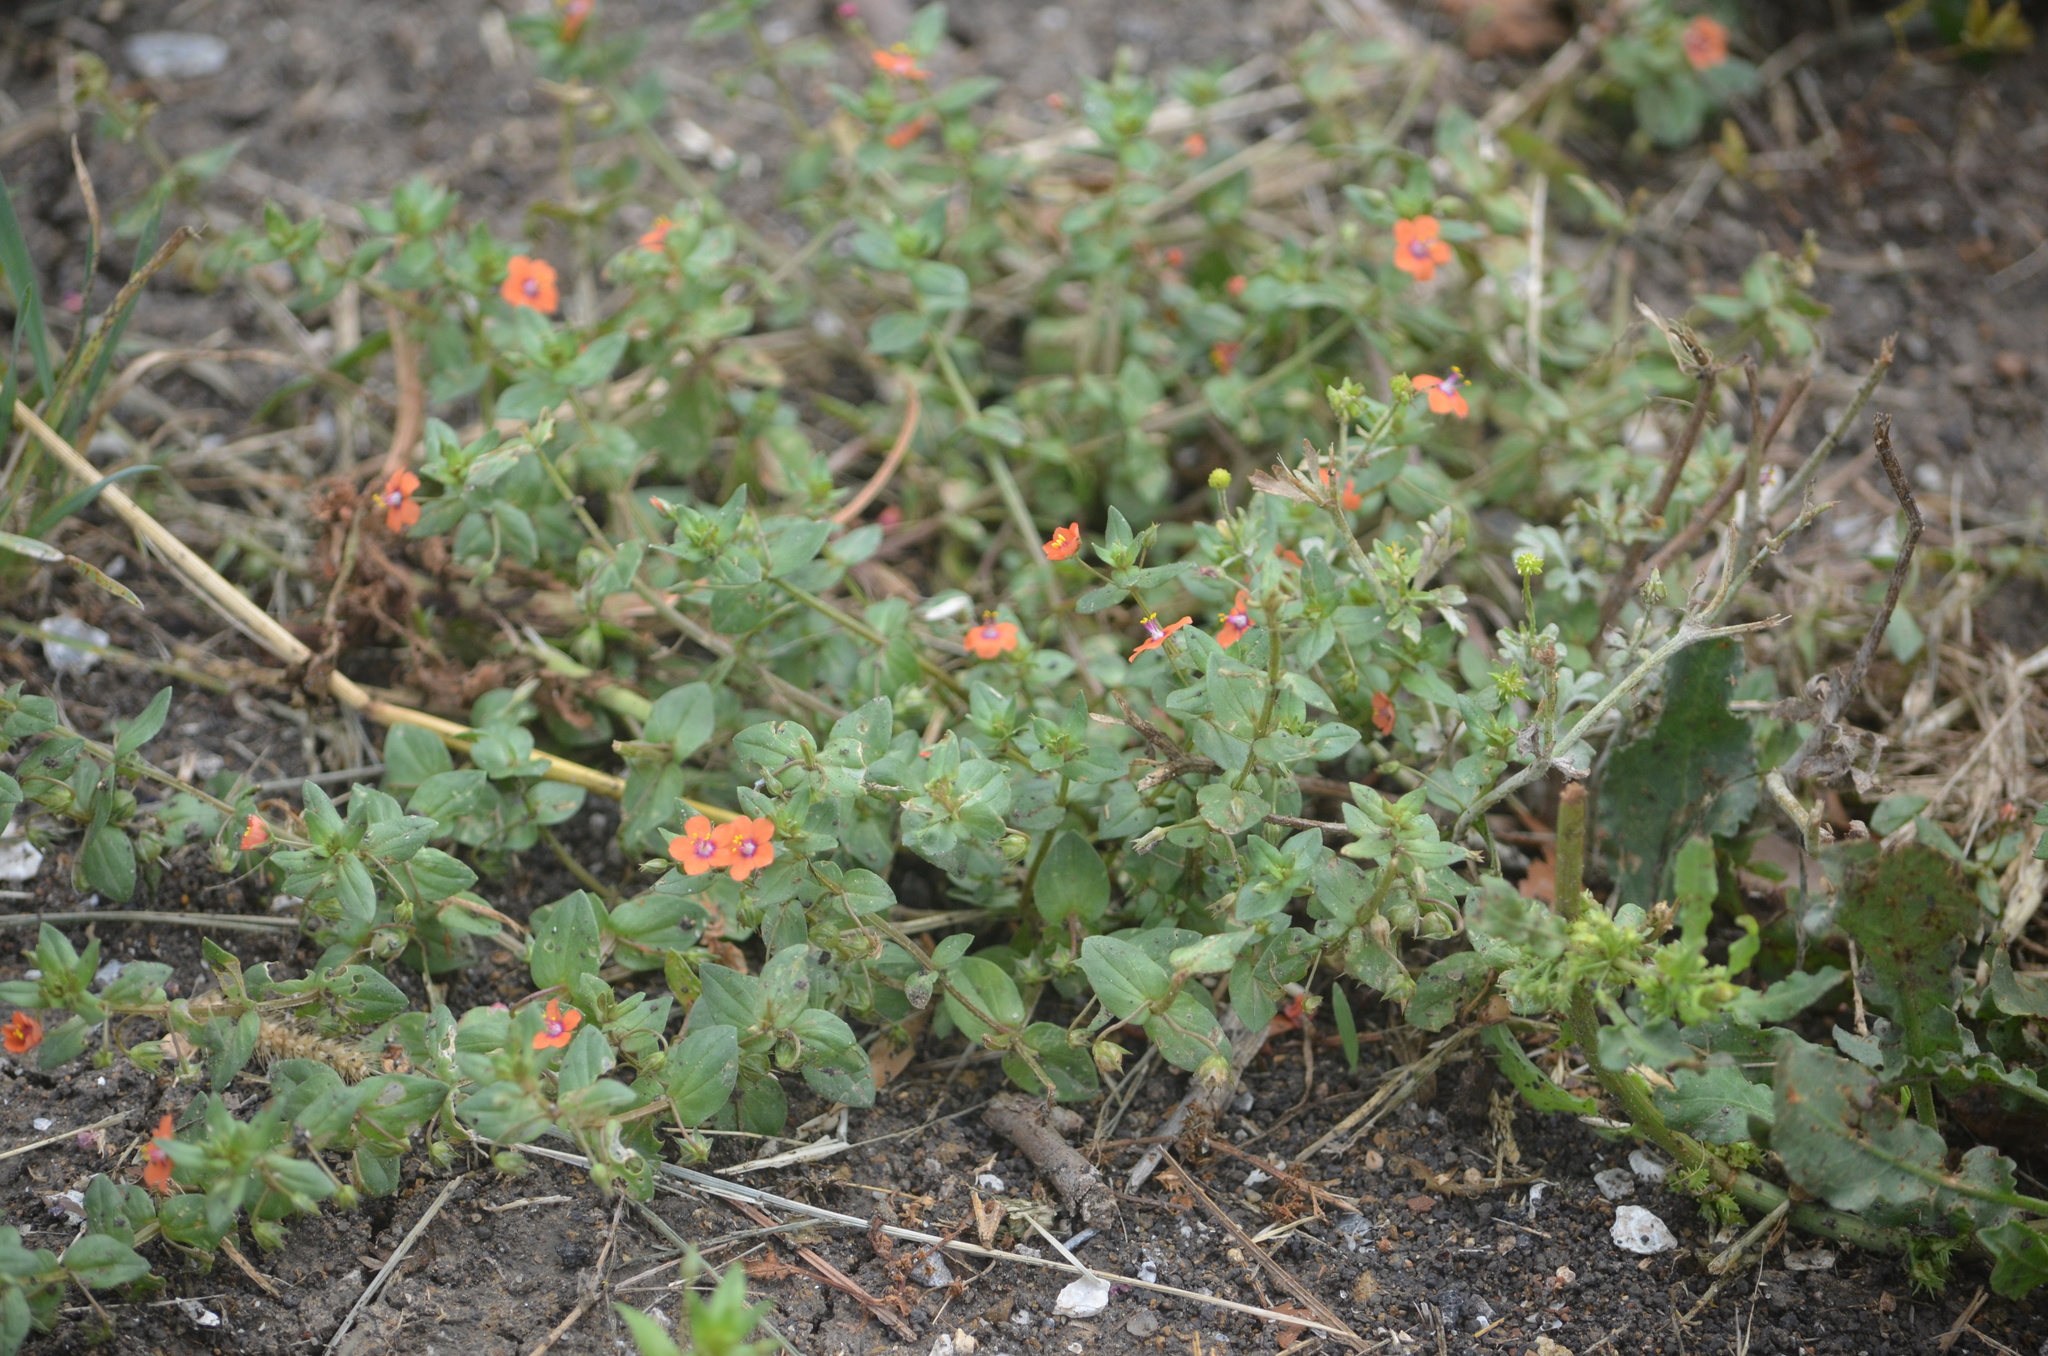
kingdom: Plantae
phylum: Tracheophyta
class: Magnoliopsida
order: Ericales
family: Primulaceae
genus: Lysimachia
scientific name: Lysimachia arvensis
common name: Scarlet pimpernel
